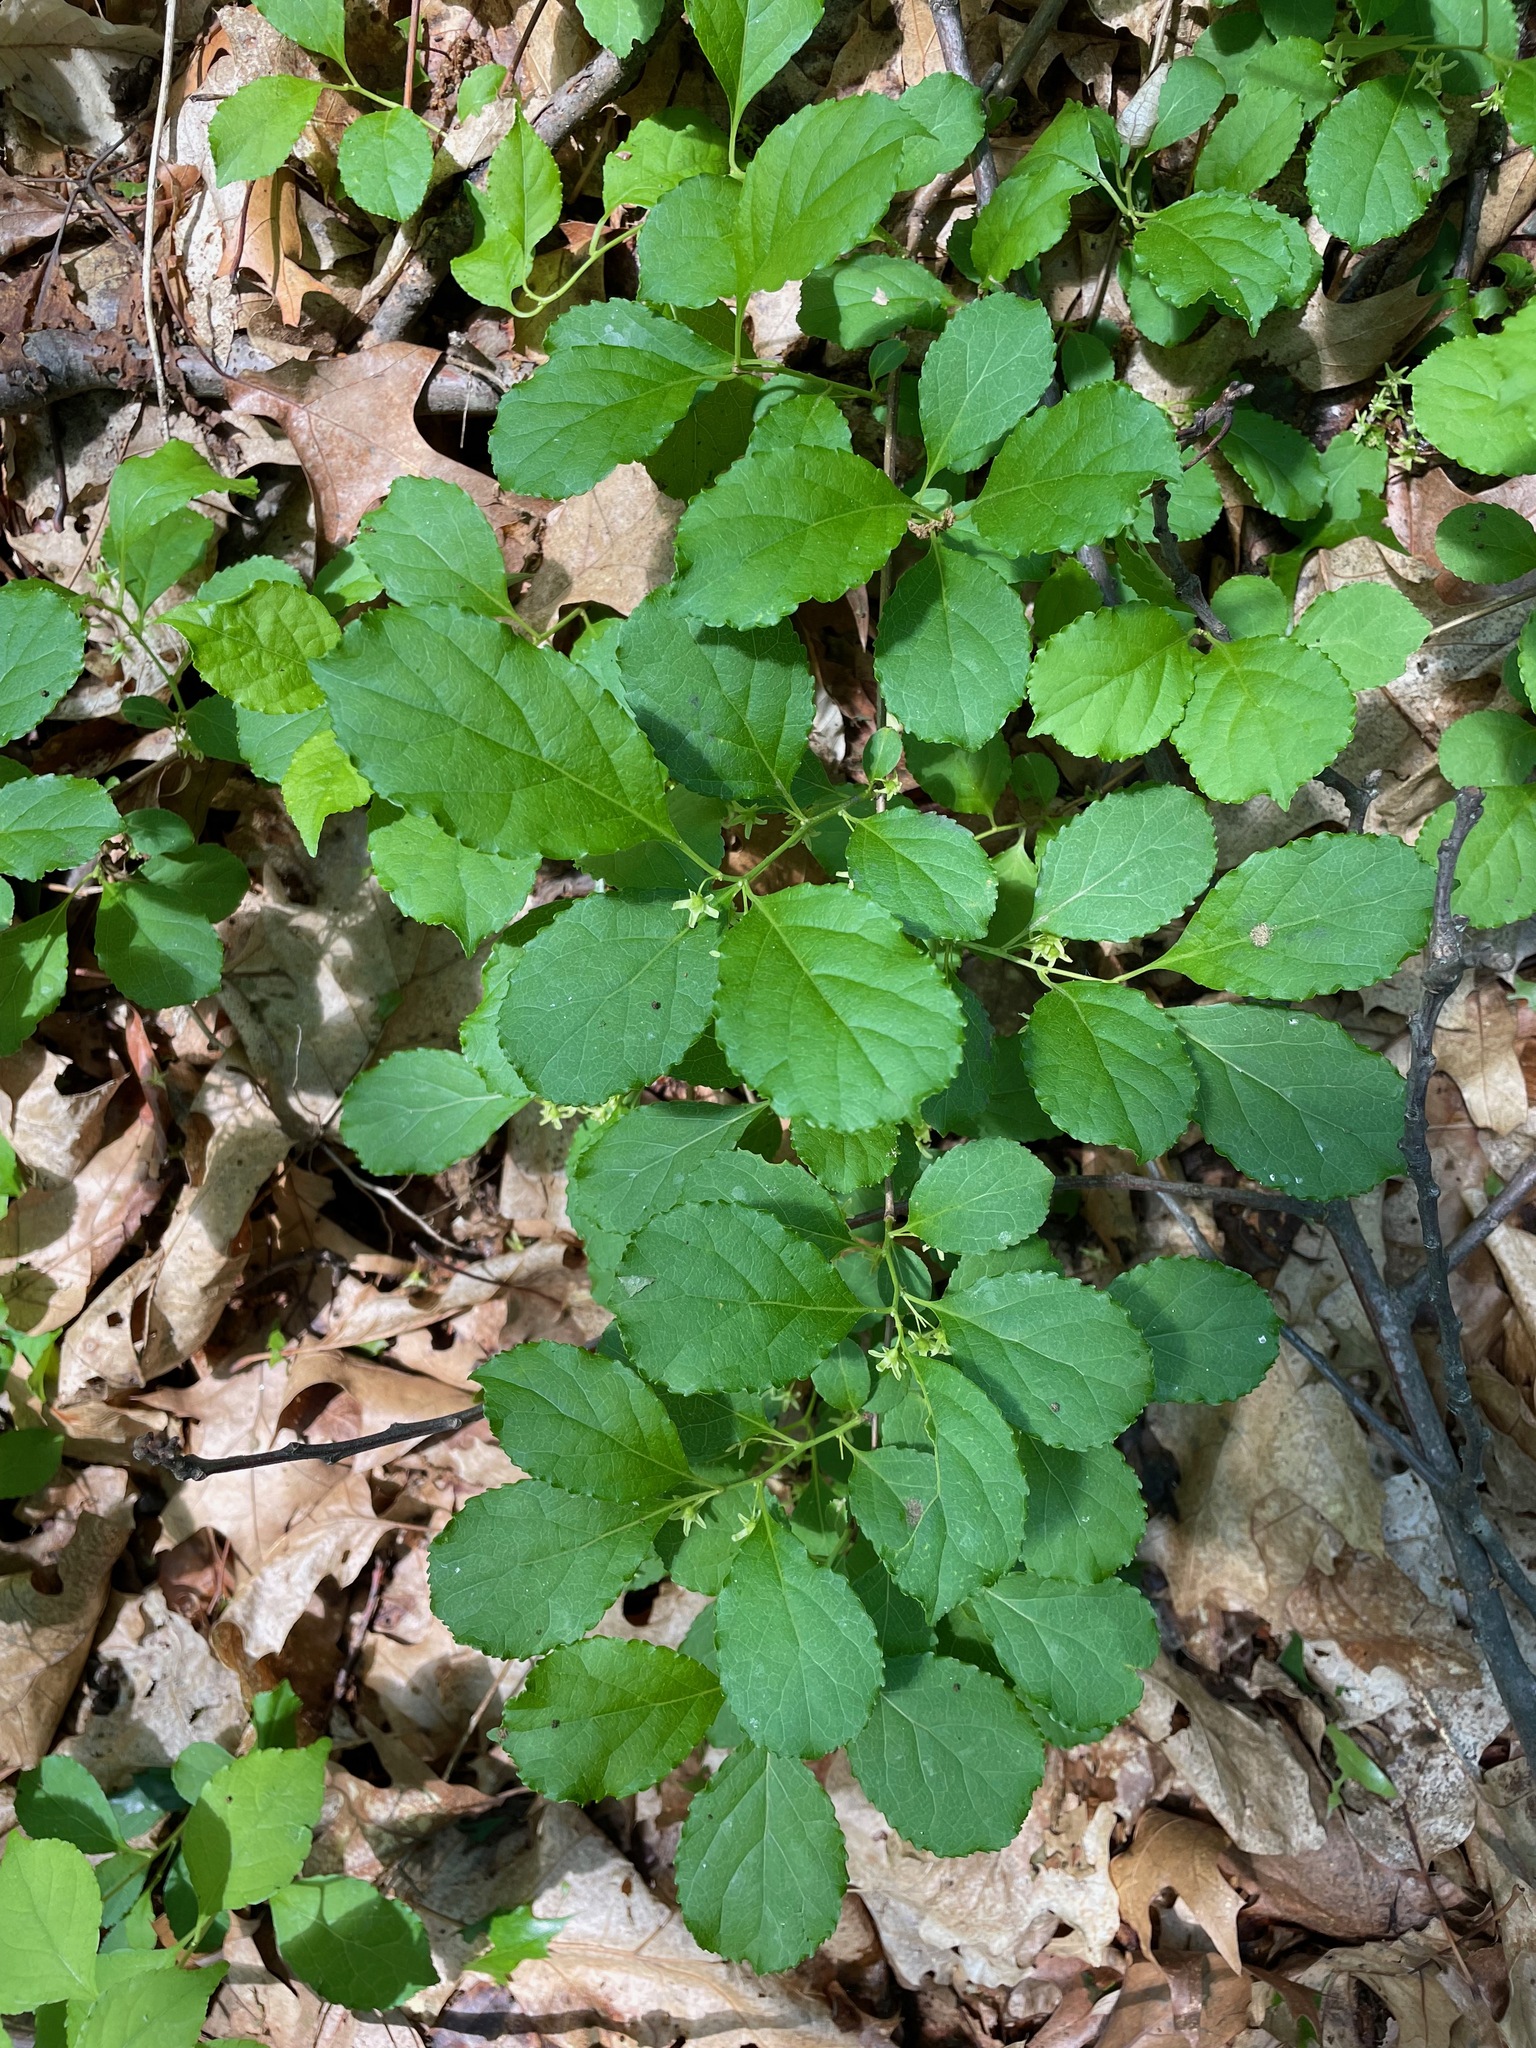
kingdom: Plantae
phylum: Tracheophyta
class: Magnoliopsida
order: Celastrales
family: Celastraceae
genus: Celastrus
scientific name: Celastrus orbiculatus
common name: Oriental bittersweet
